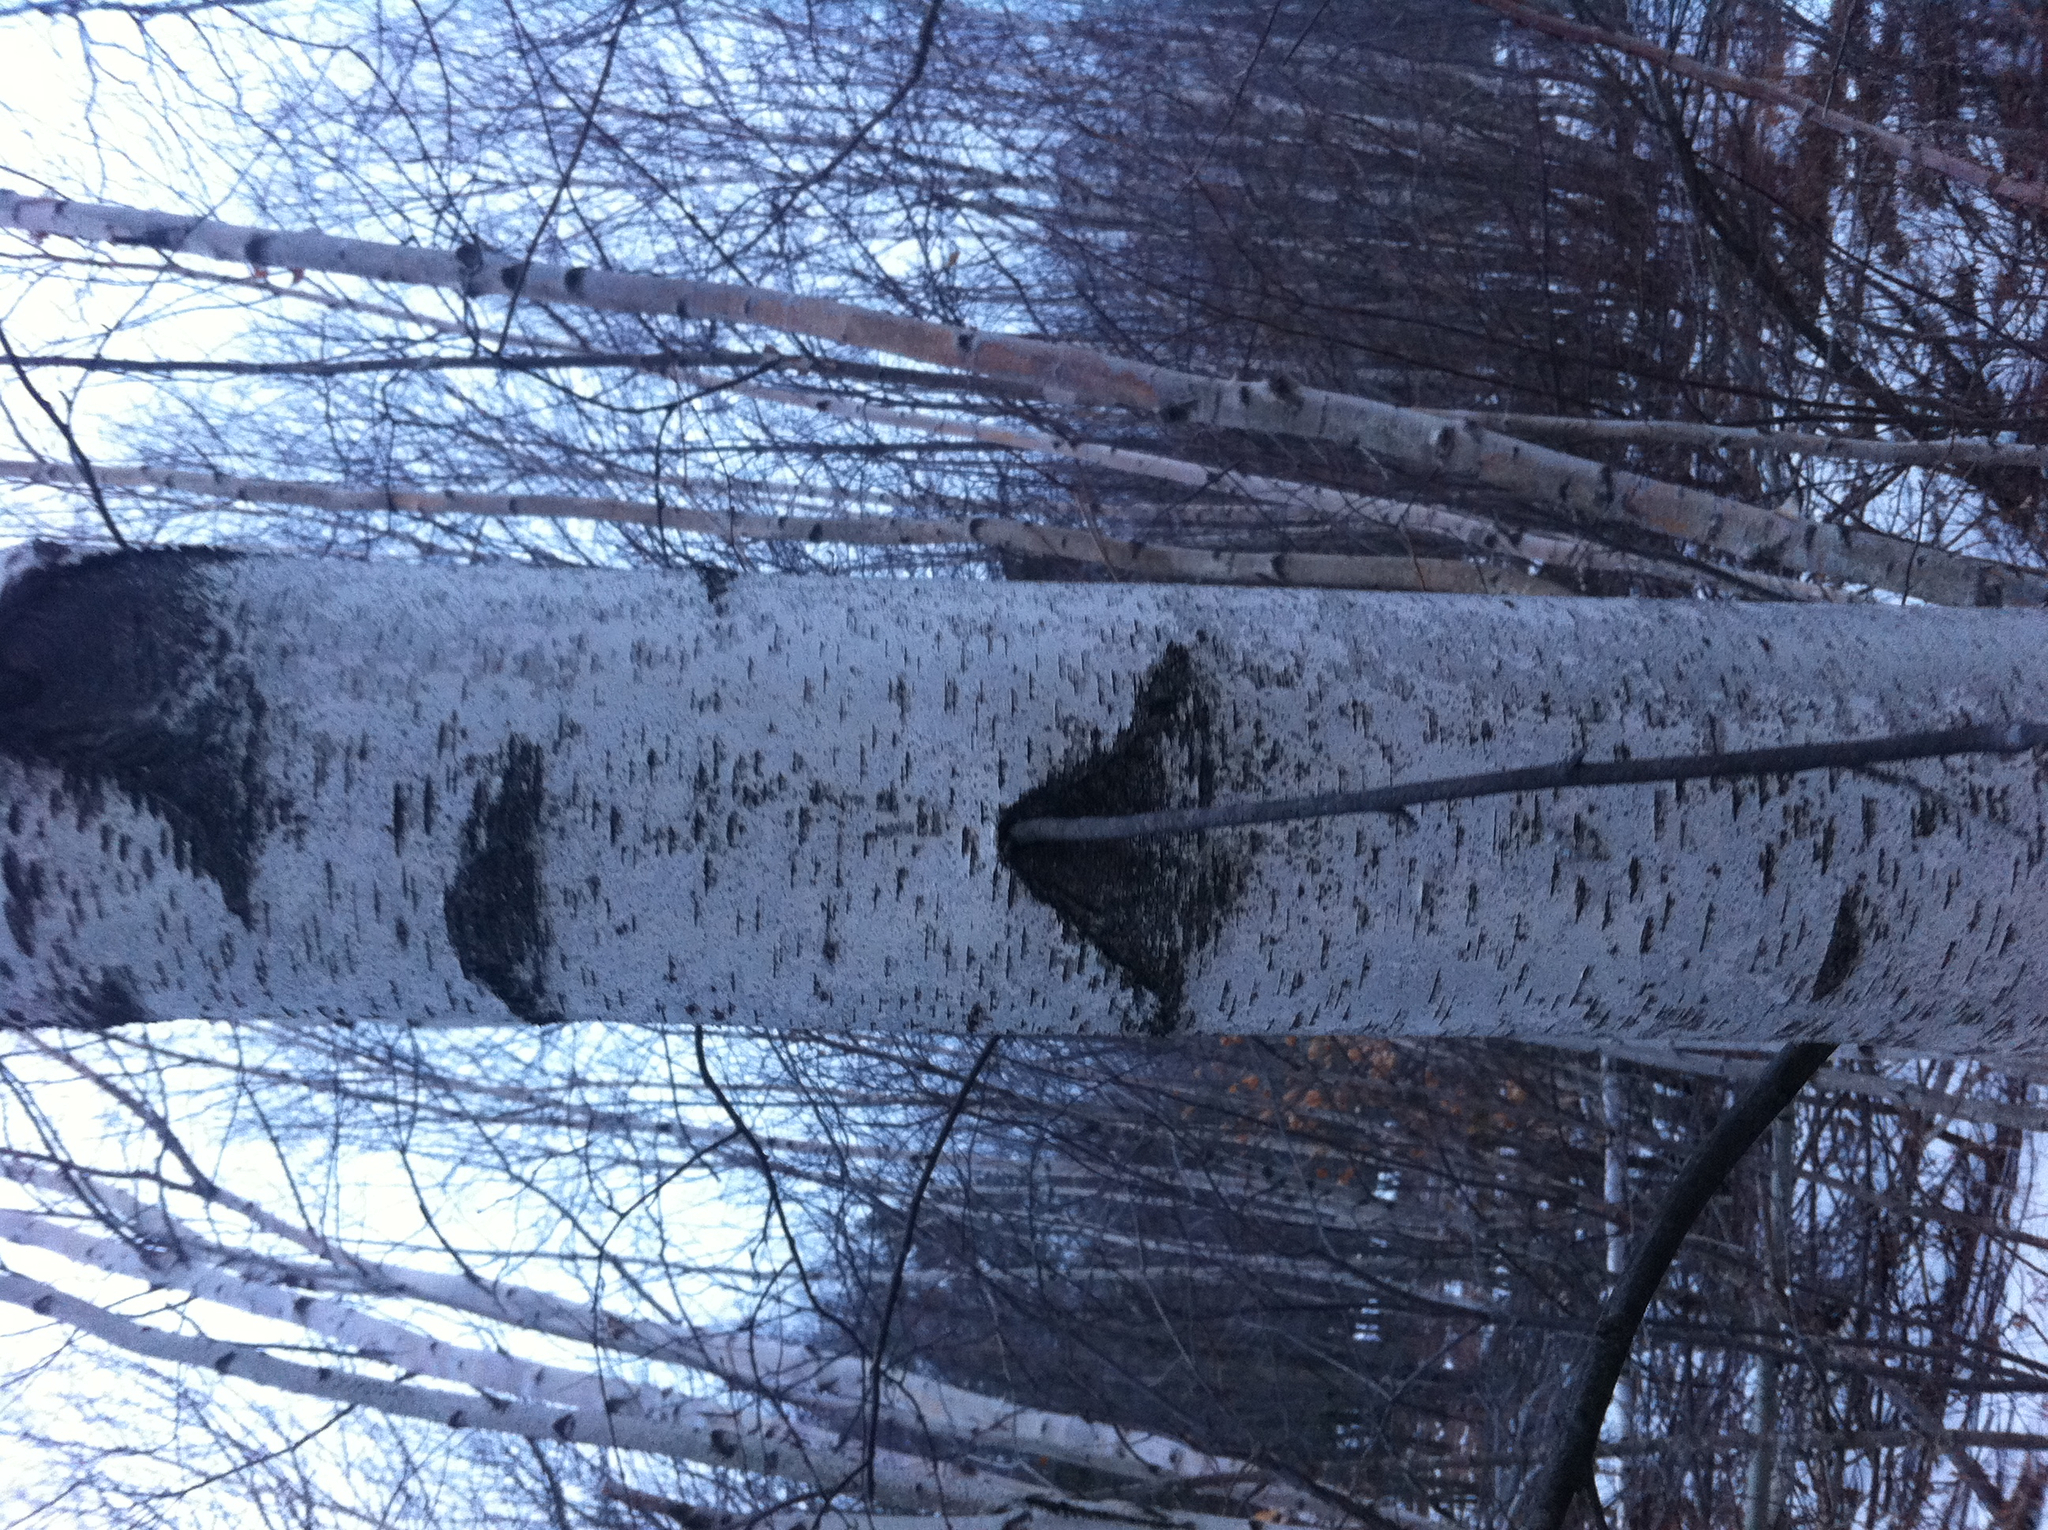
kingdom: Plantae
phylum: Tracheophyta
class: Magnoliopsida
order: Fagales
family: Betulaceae
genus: Betula
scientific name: Betula populifolia
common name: Fire birch
